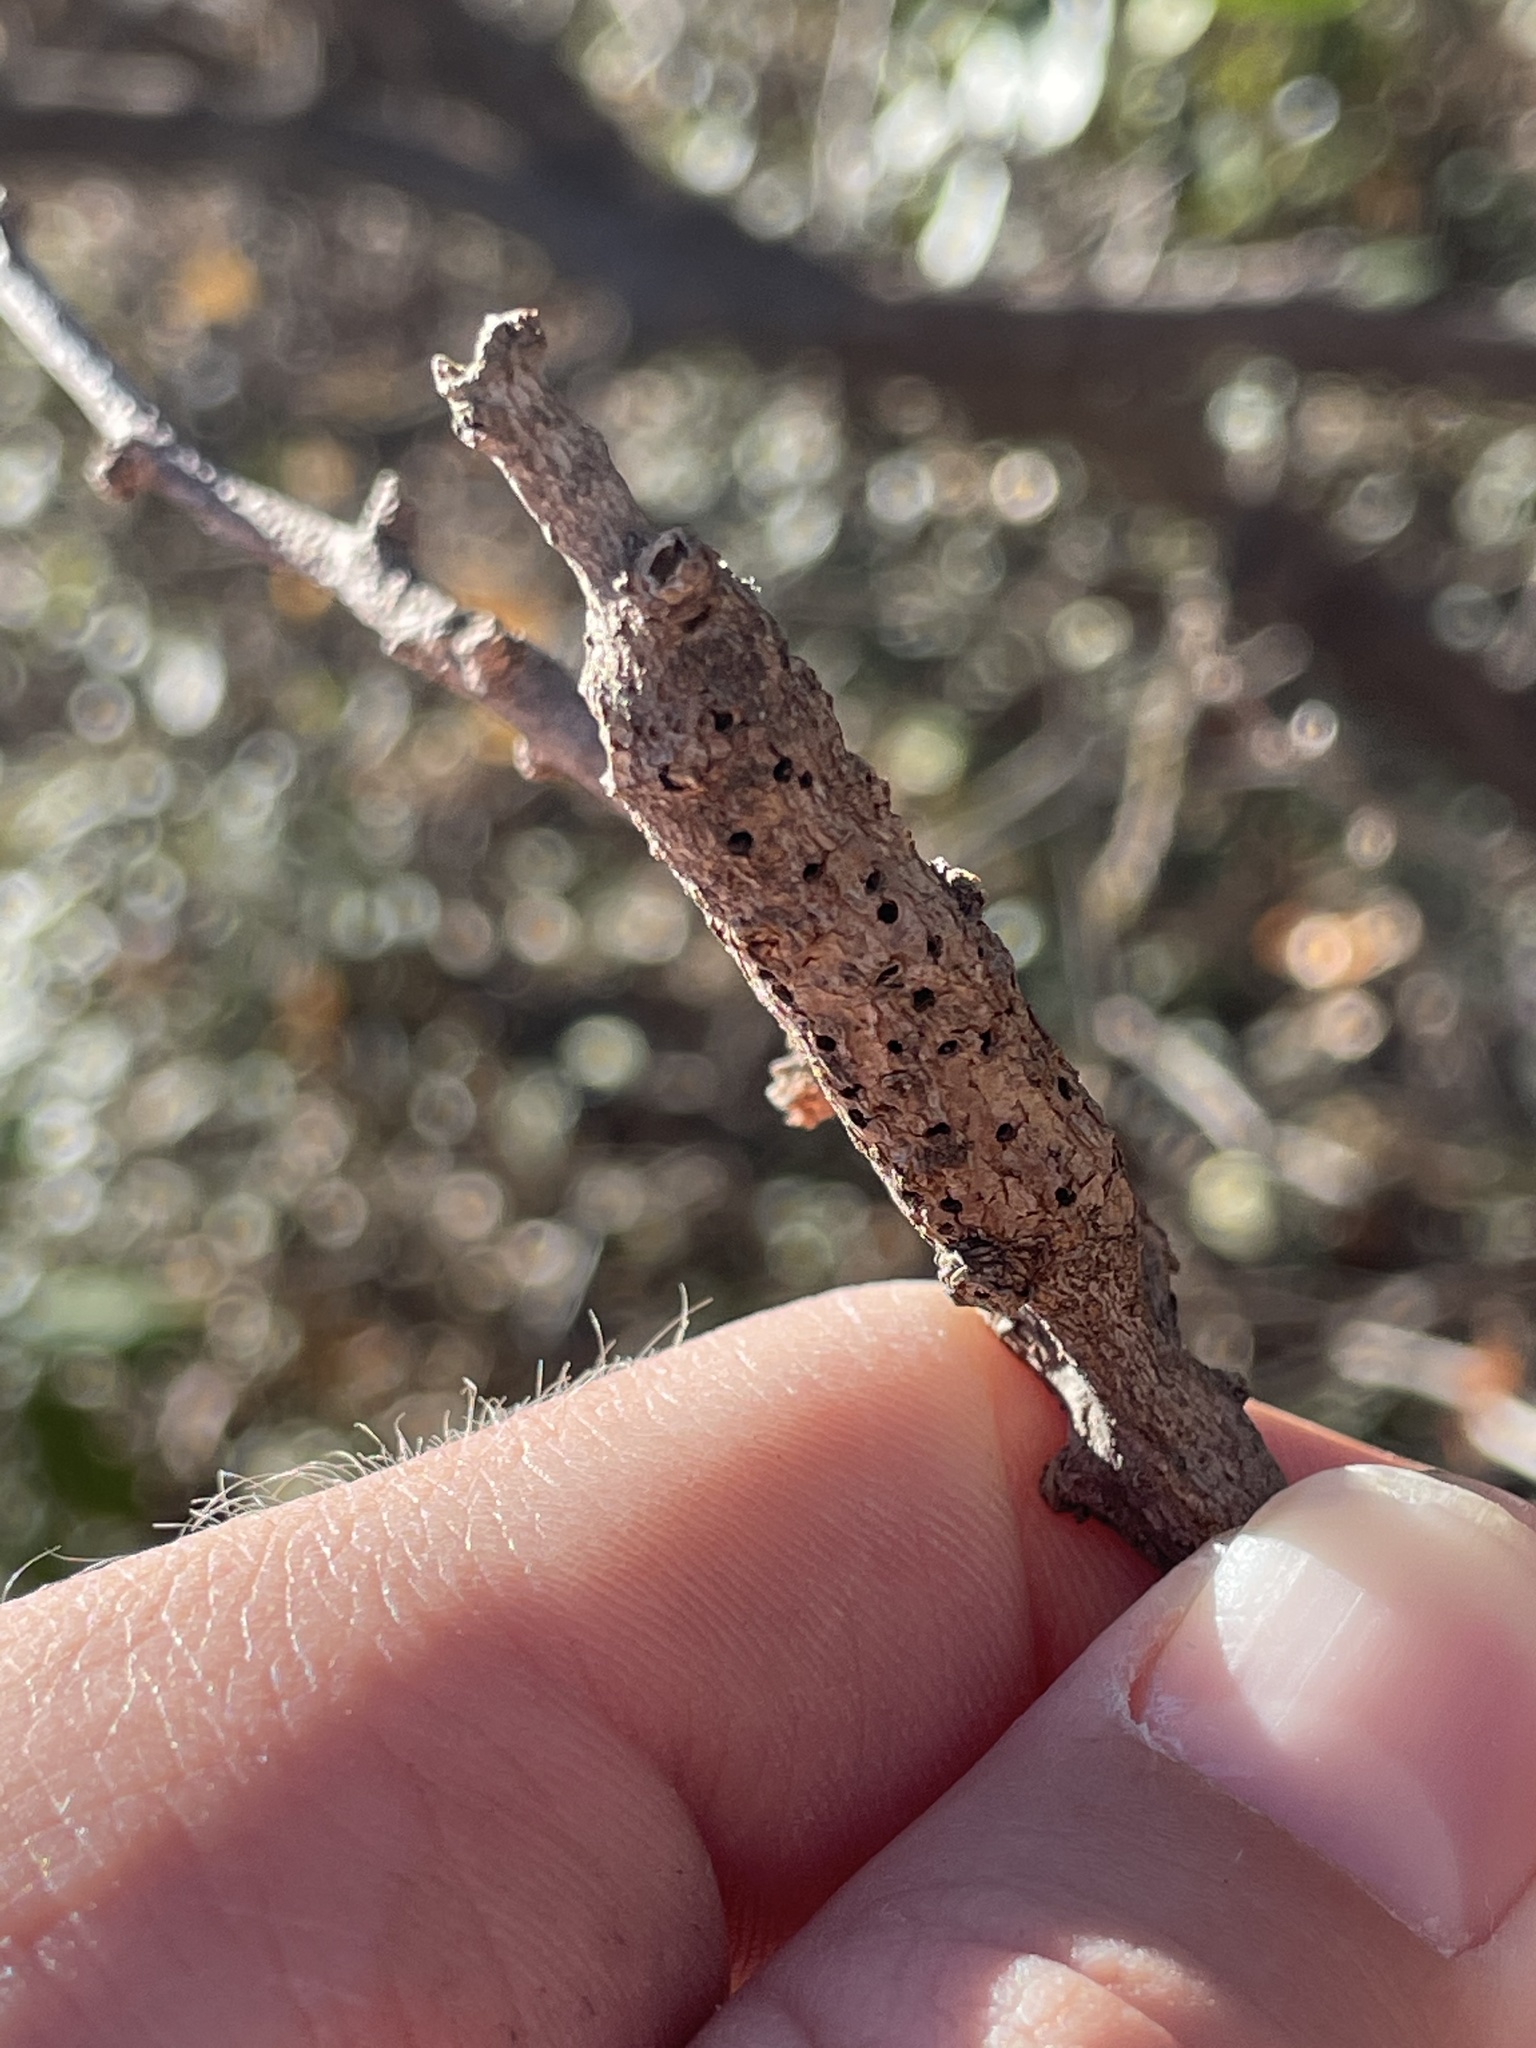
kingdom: Animalia
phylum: Arthropoda
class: Insecta
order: Diptera
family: Cecidomyiidae
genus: Bruggmanniella
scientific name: Bruggmanniella bumeliae
